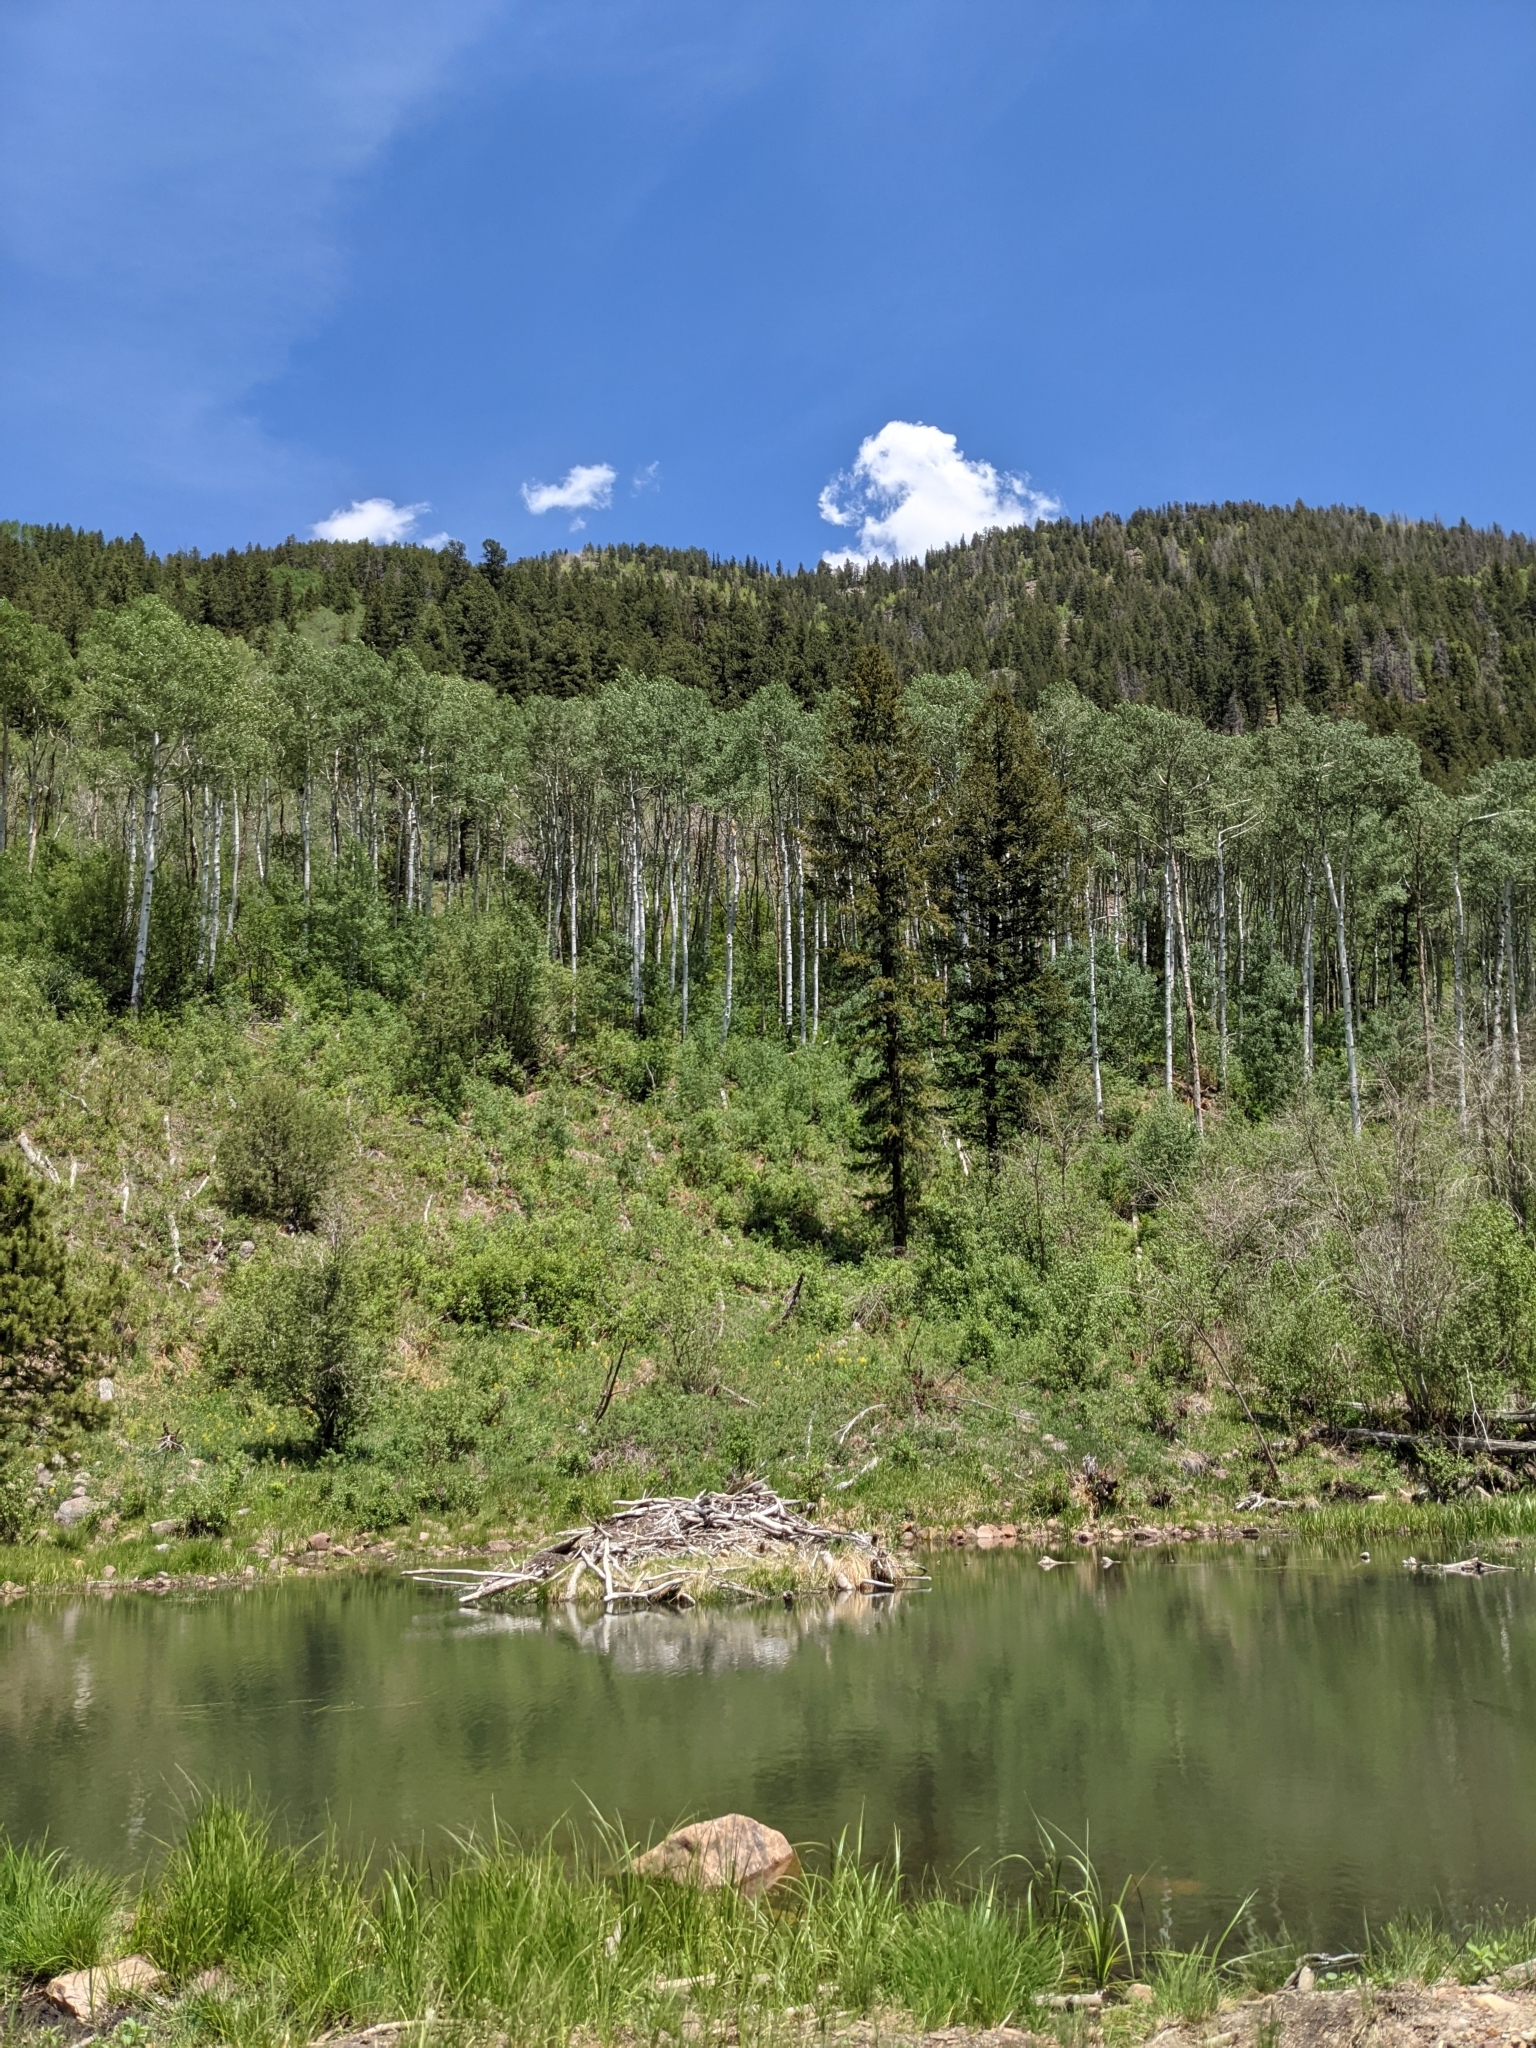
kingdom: Animalia
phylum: Chordata
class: Mammalia
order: Rodentia
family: Castoridae
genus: Castor
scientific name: Castor canadensis
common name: American beaver
